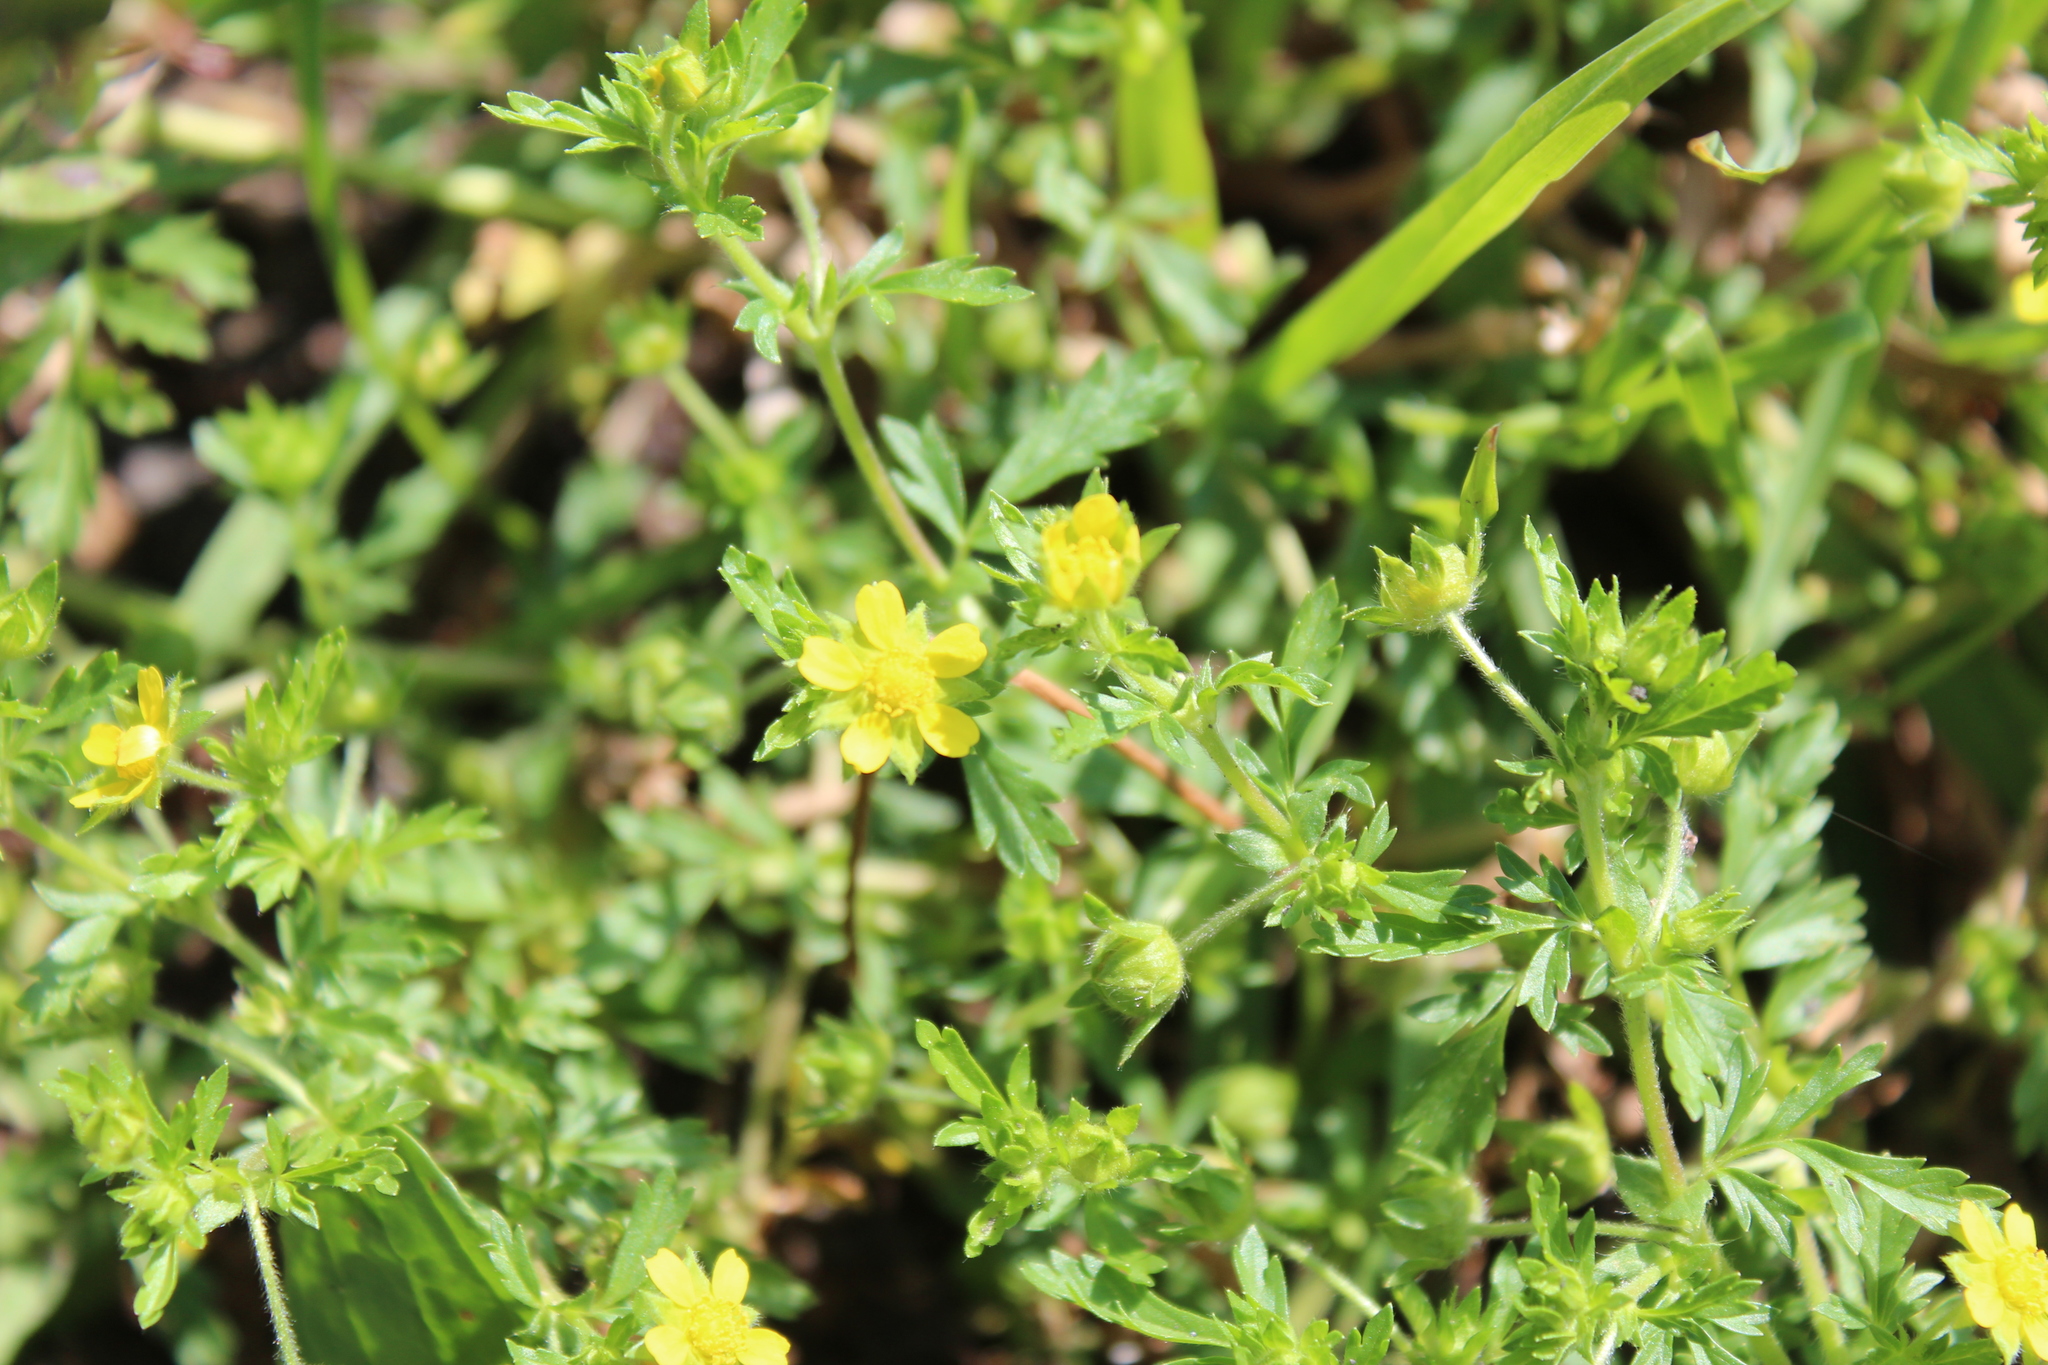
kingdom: Plantae
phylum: Tracheophyta
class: Magnoliopsida
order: Rosales
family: Rosaceae
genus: Potentilla
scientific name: Potentilla supina
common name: Prostrate cinquefoil
